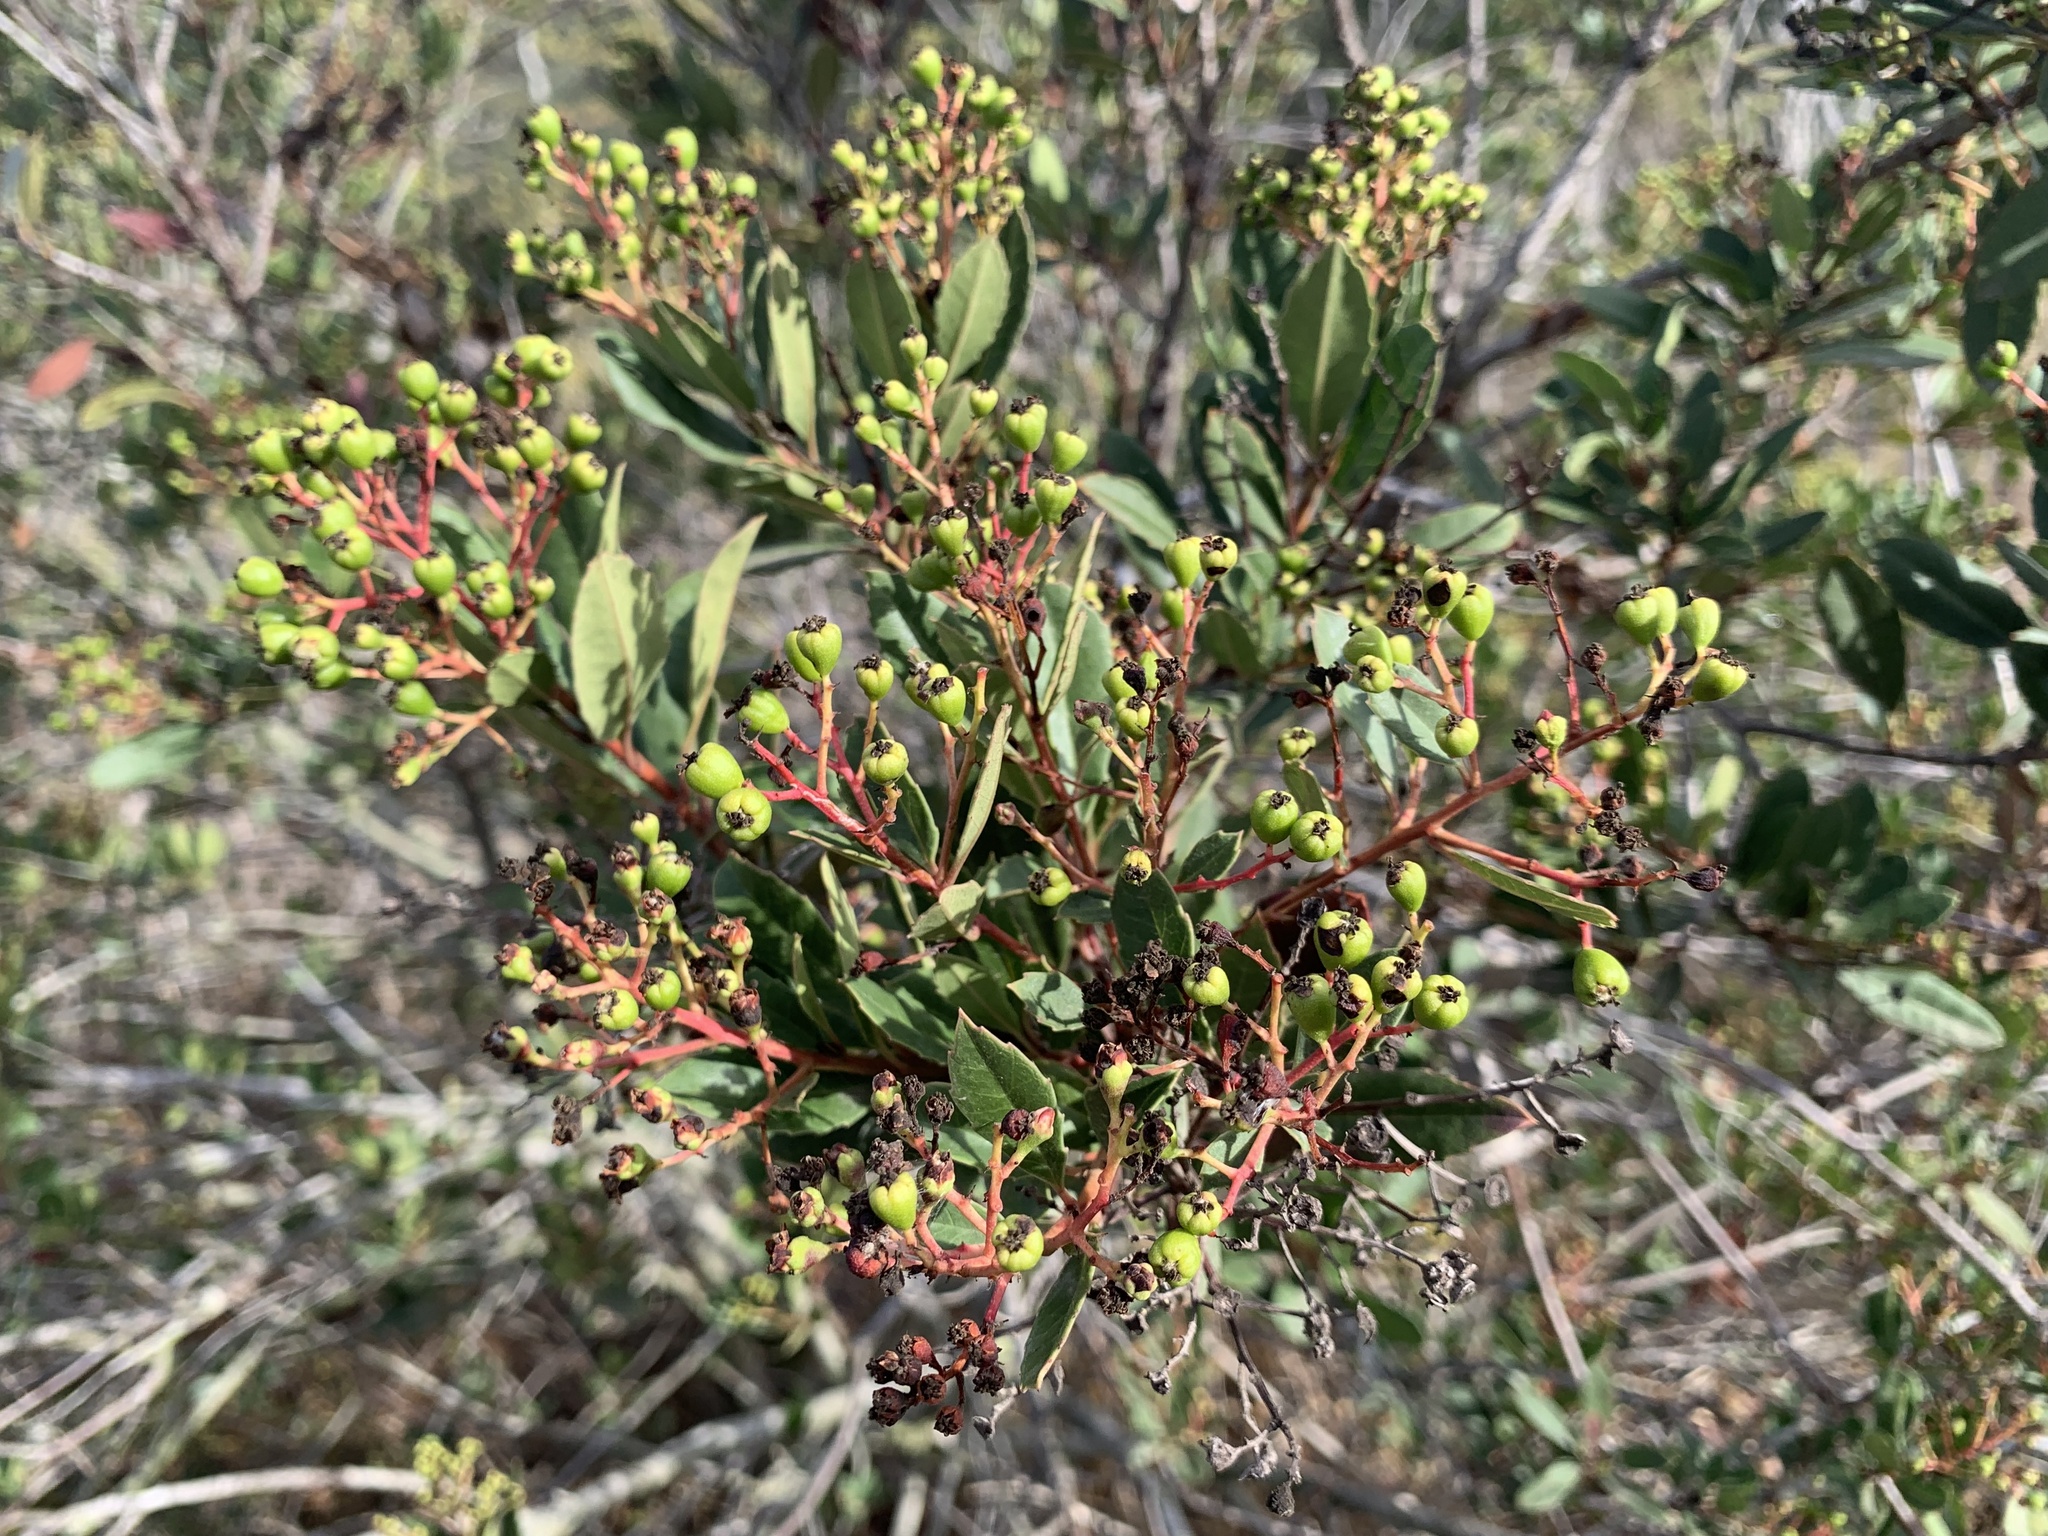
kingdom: Plantae
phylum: Tracheophyta
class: Magnoliopsida
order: Rosales
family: Rosaceae
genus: Heteromeles
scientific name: Heteromeles arbutifolia
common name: California-holly
